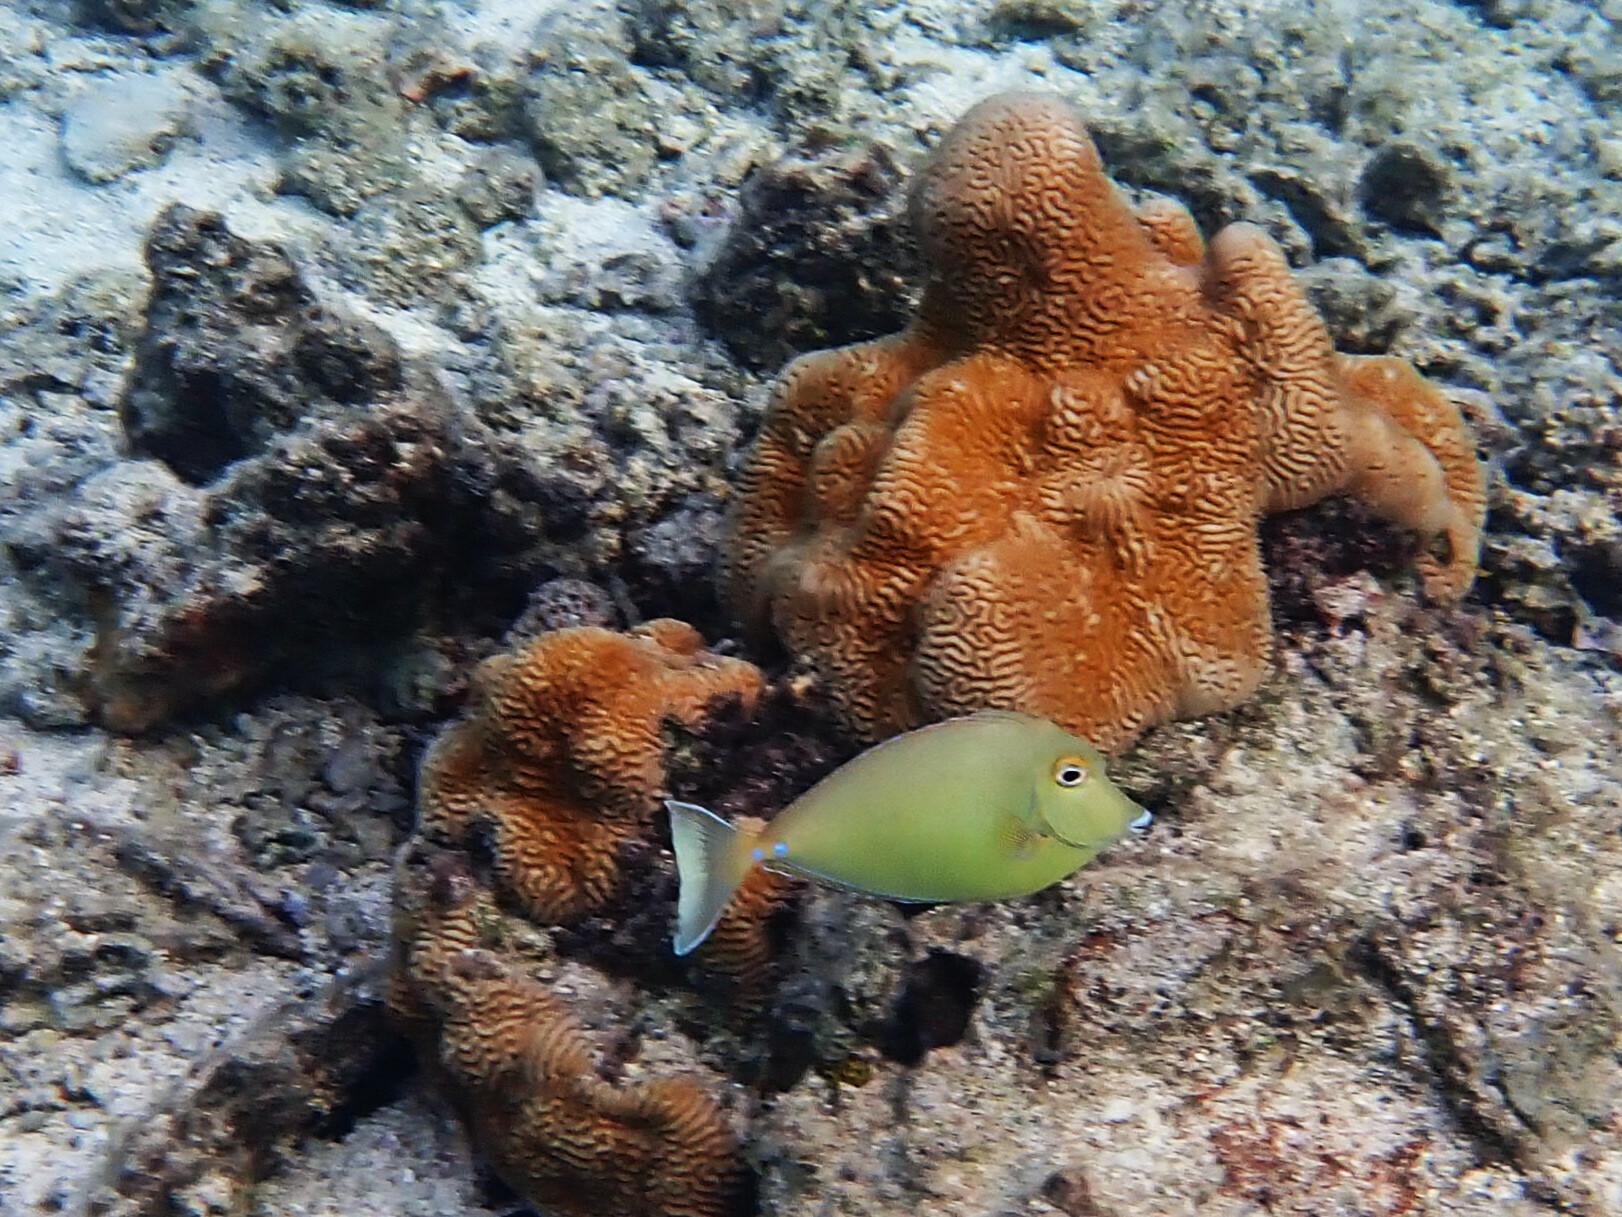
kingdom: Animalia
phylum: Chordata
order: Perciformes
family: Acanthuridae
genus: Naso
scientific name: Naso unicornis
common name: Bluespine unicornfish
